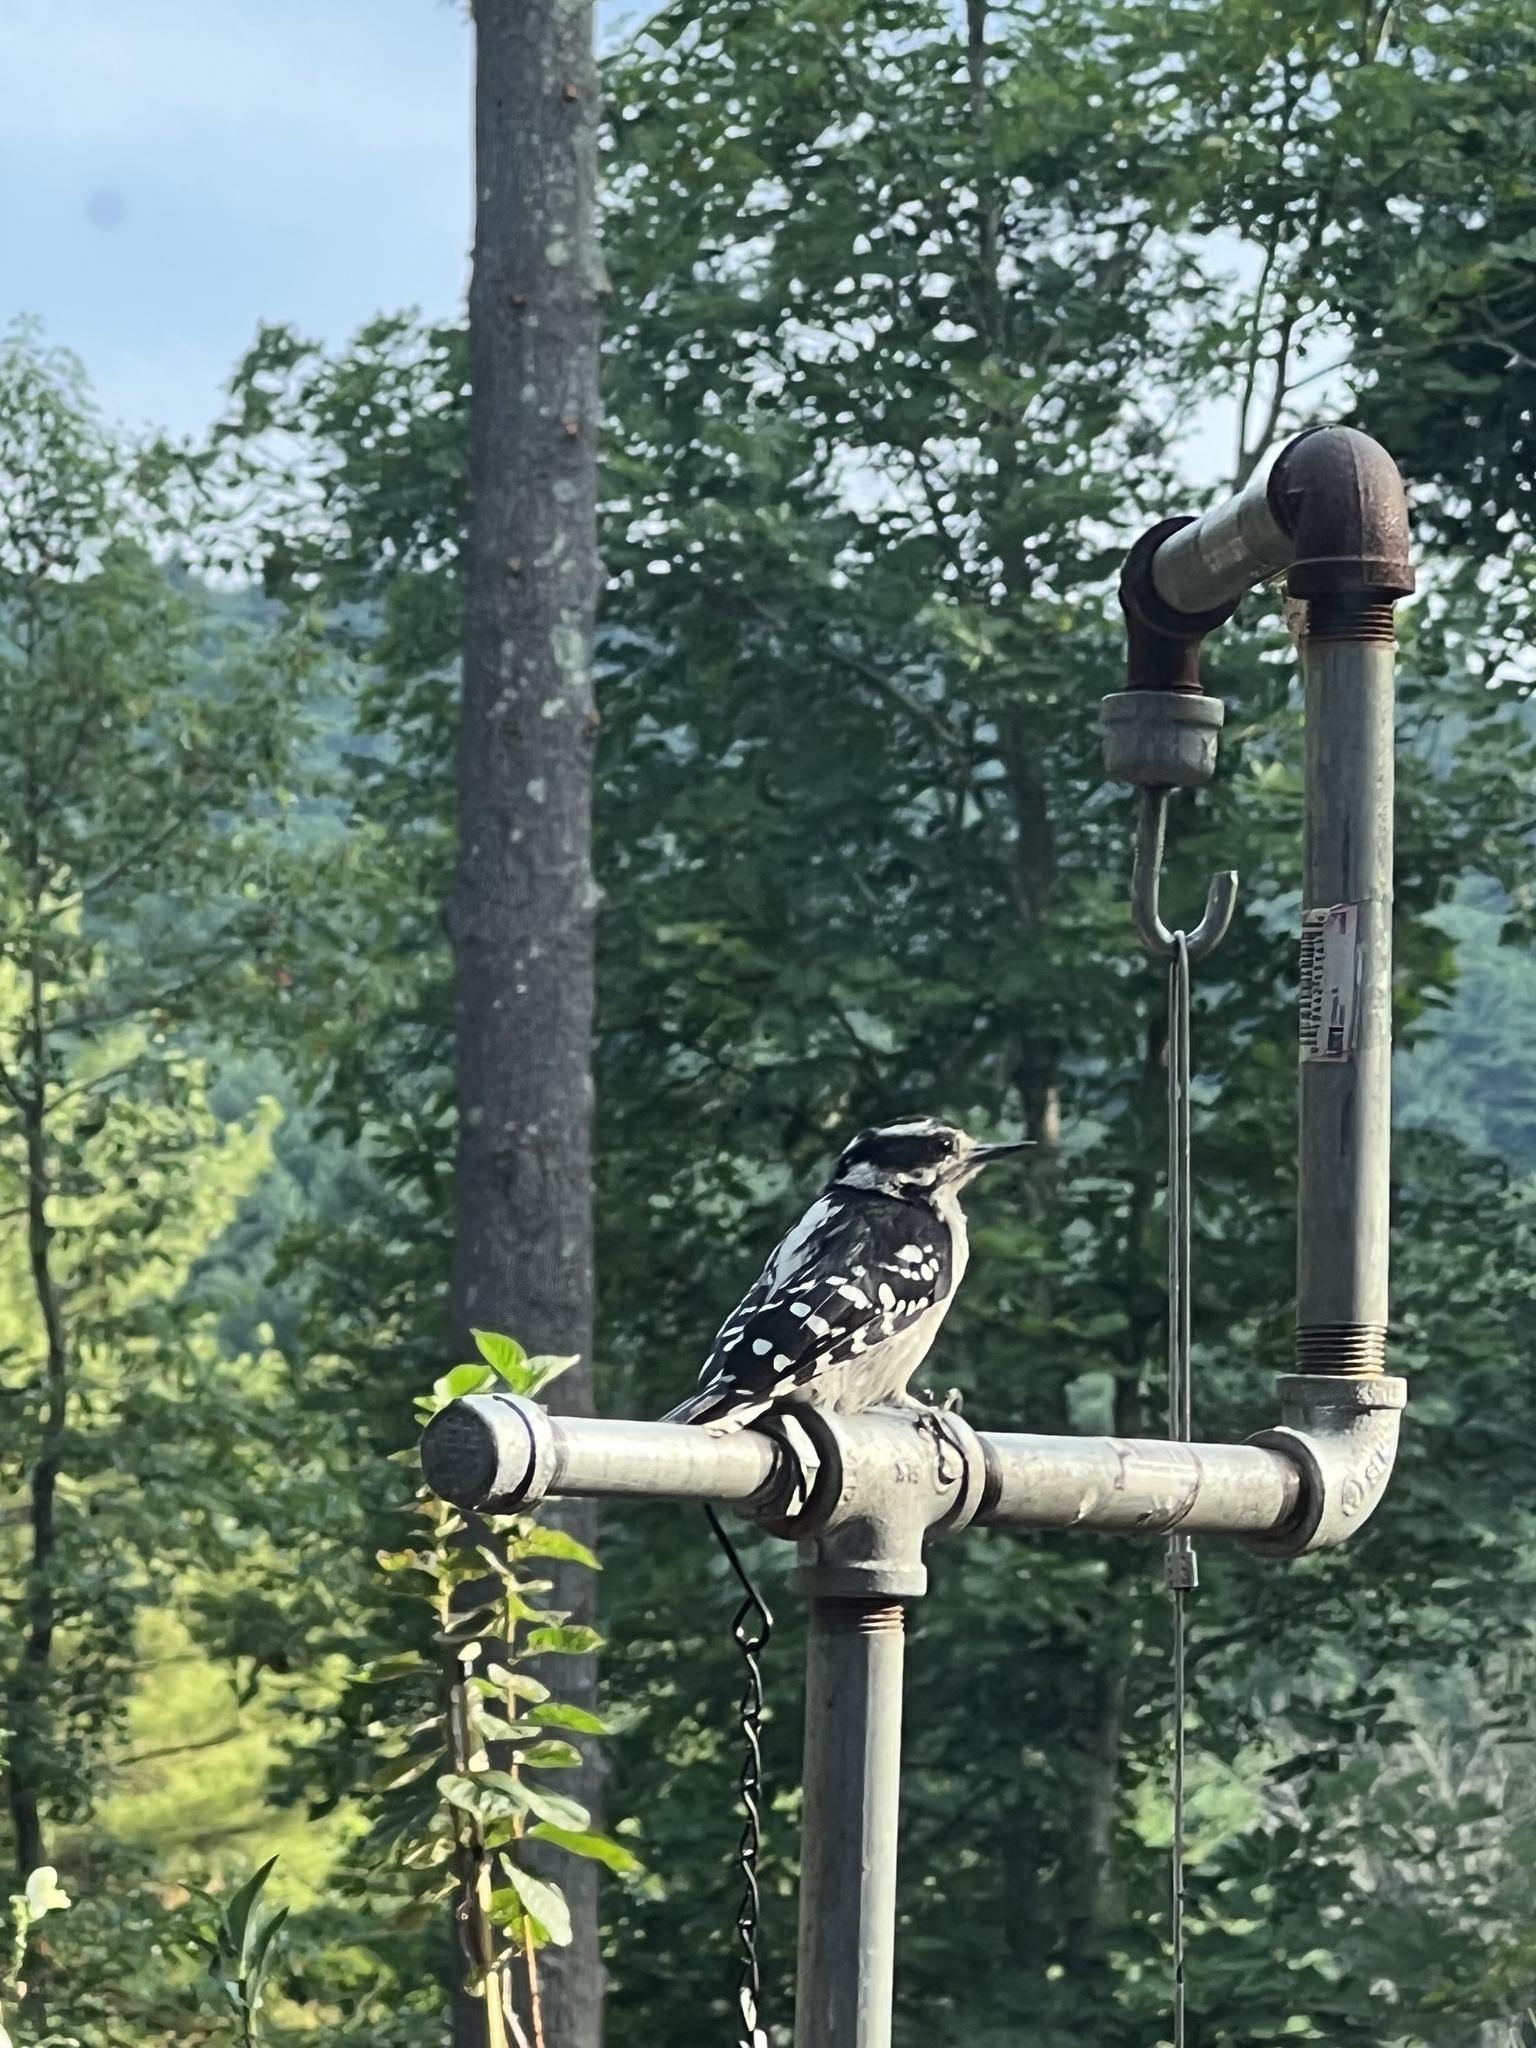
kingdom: Animalia
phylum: Chordata
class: Aves
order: Piciformes
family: Picidae
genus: Dryobates
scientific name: Dryobates pubescens
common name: Downy woodpecker
